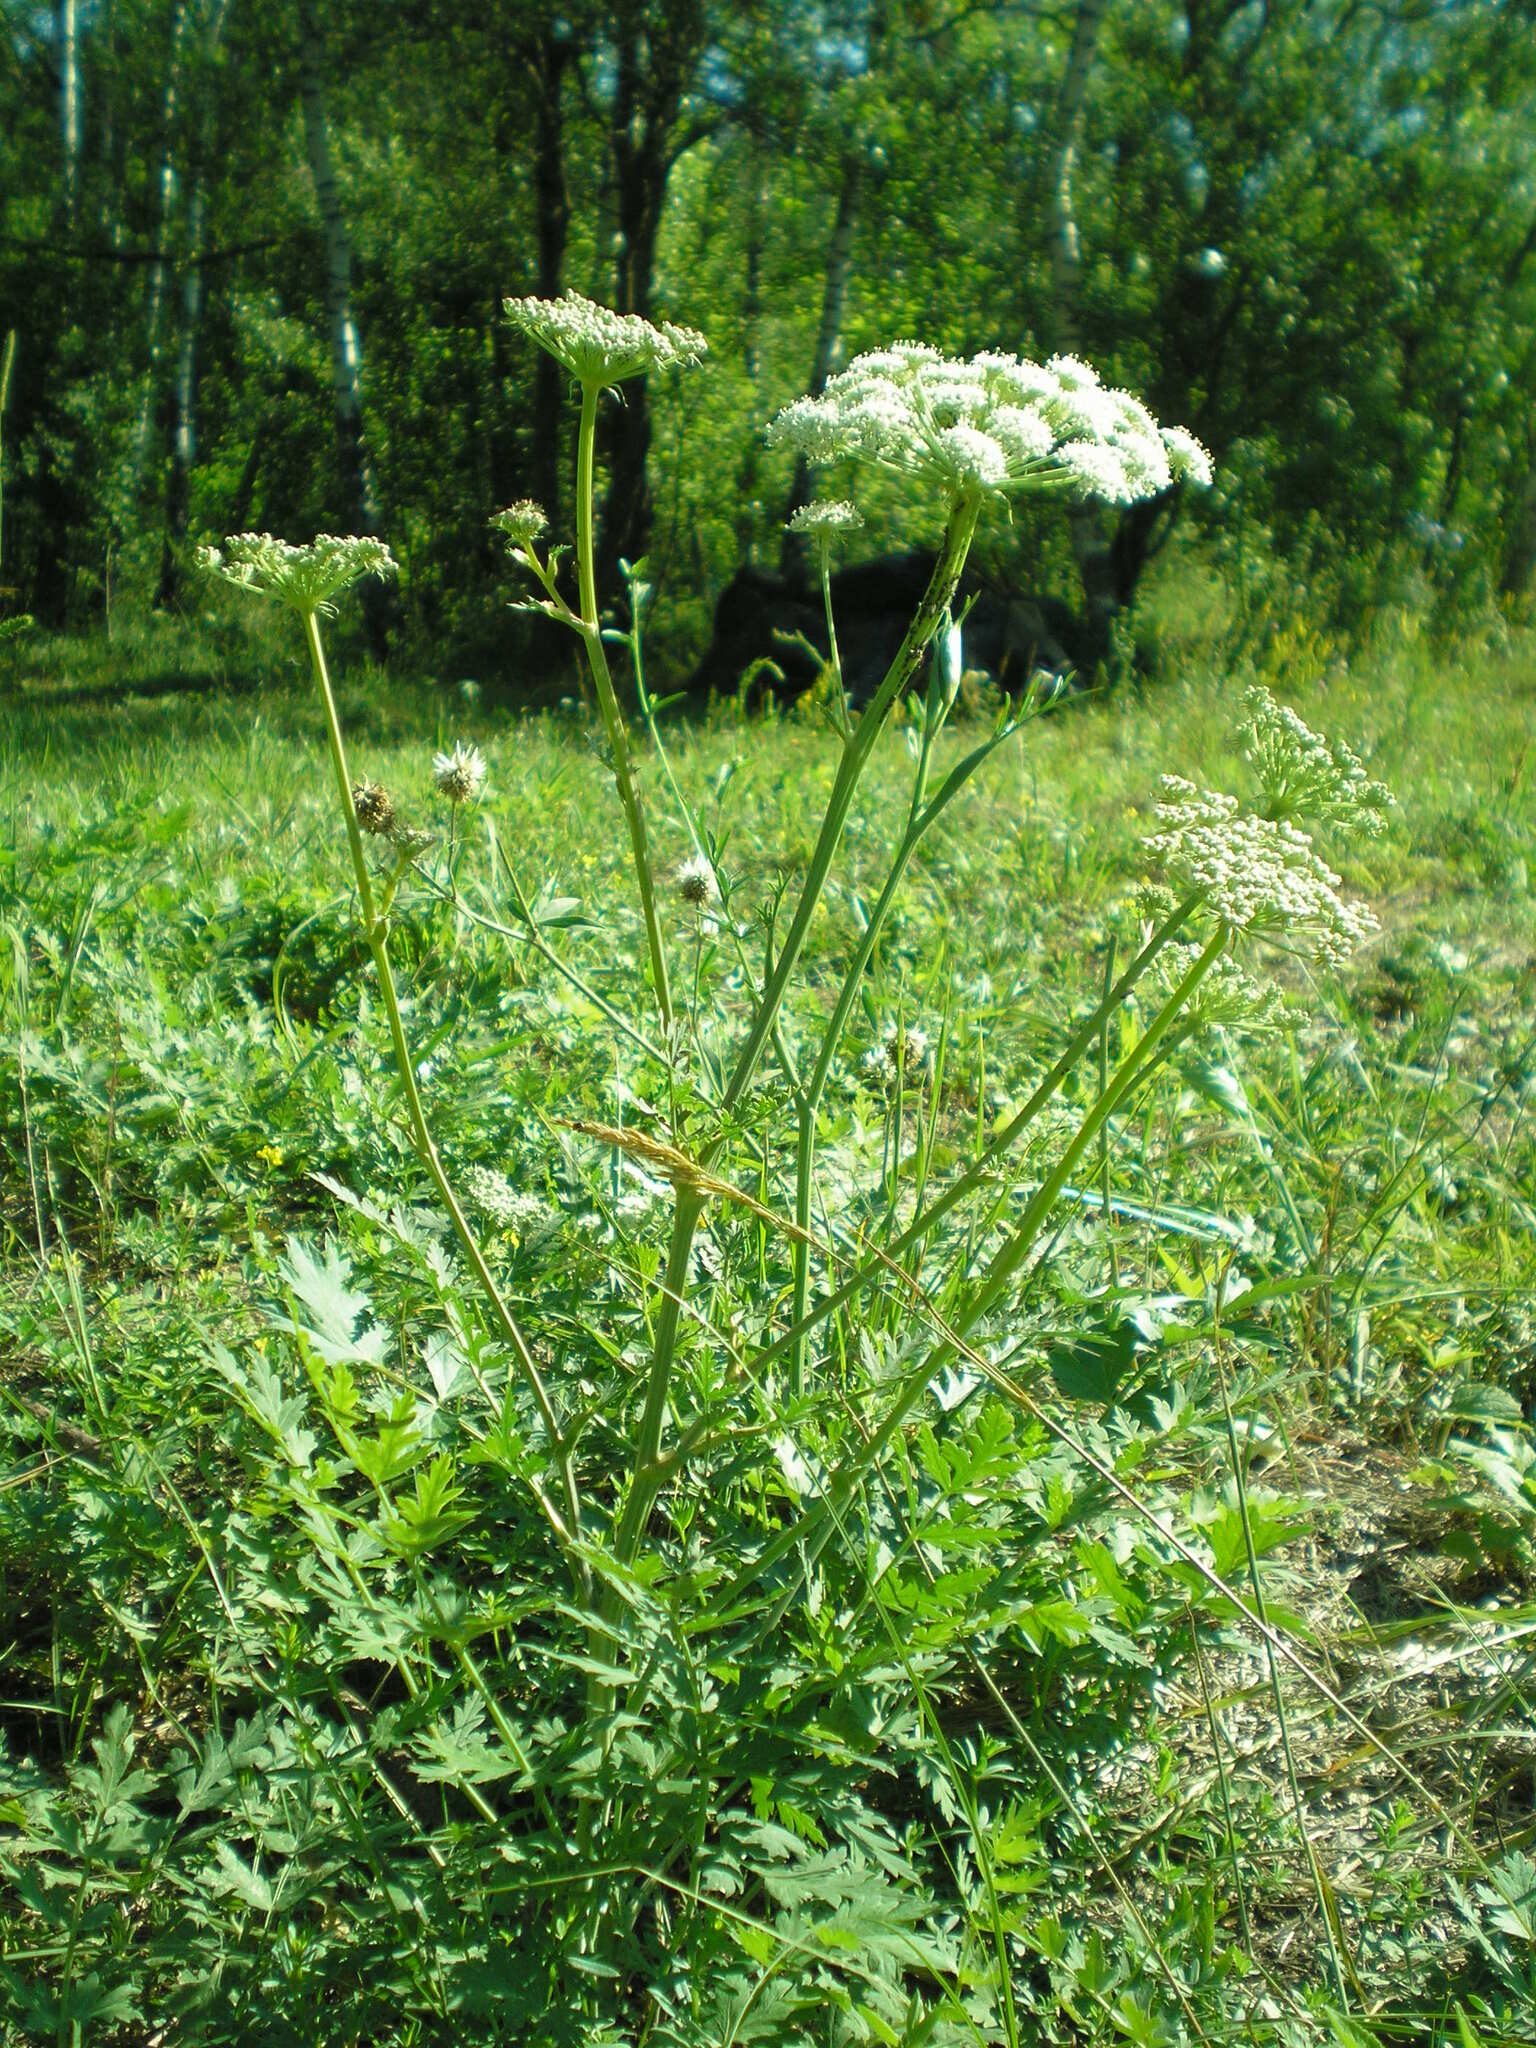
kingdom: Plantae
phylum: Tracheophyta
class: Magnoliopsida
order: Apiales
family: Apiaceae
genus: Seseli
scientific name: Seseli libanotis
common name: Mooncarrot
